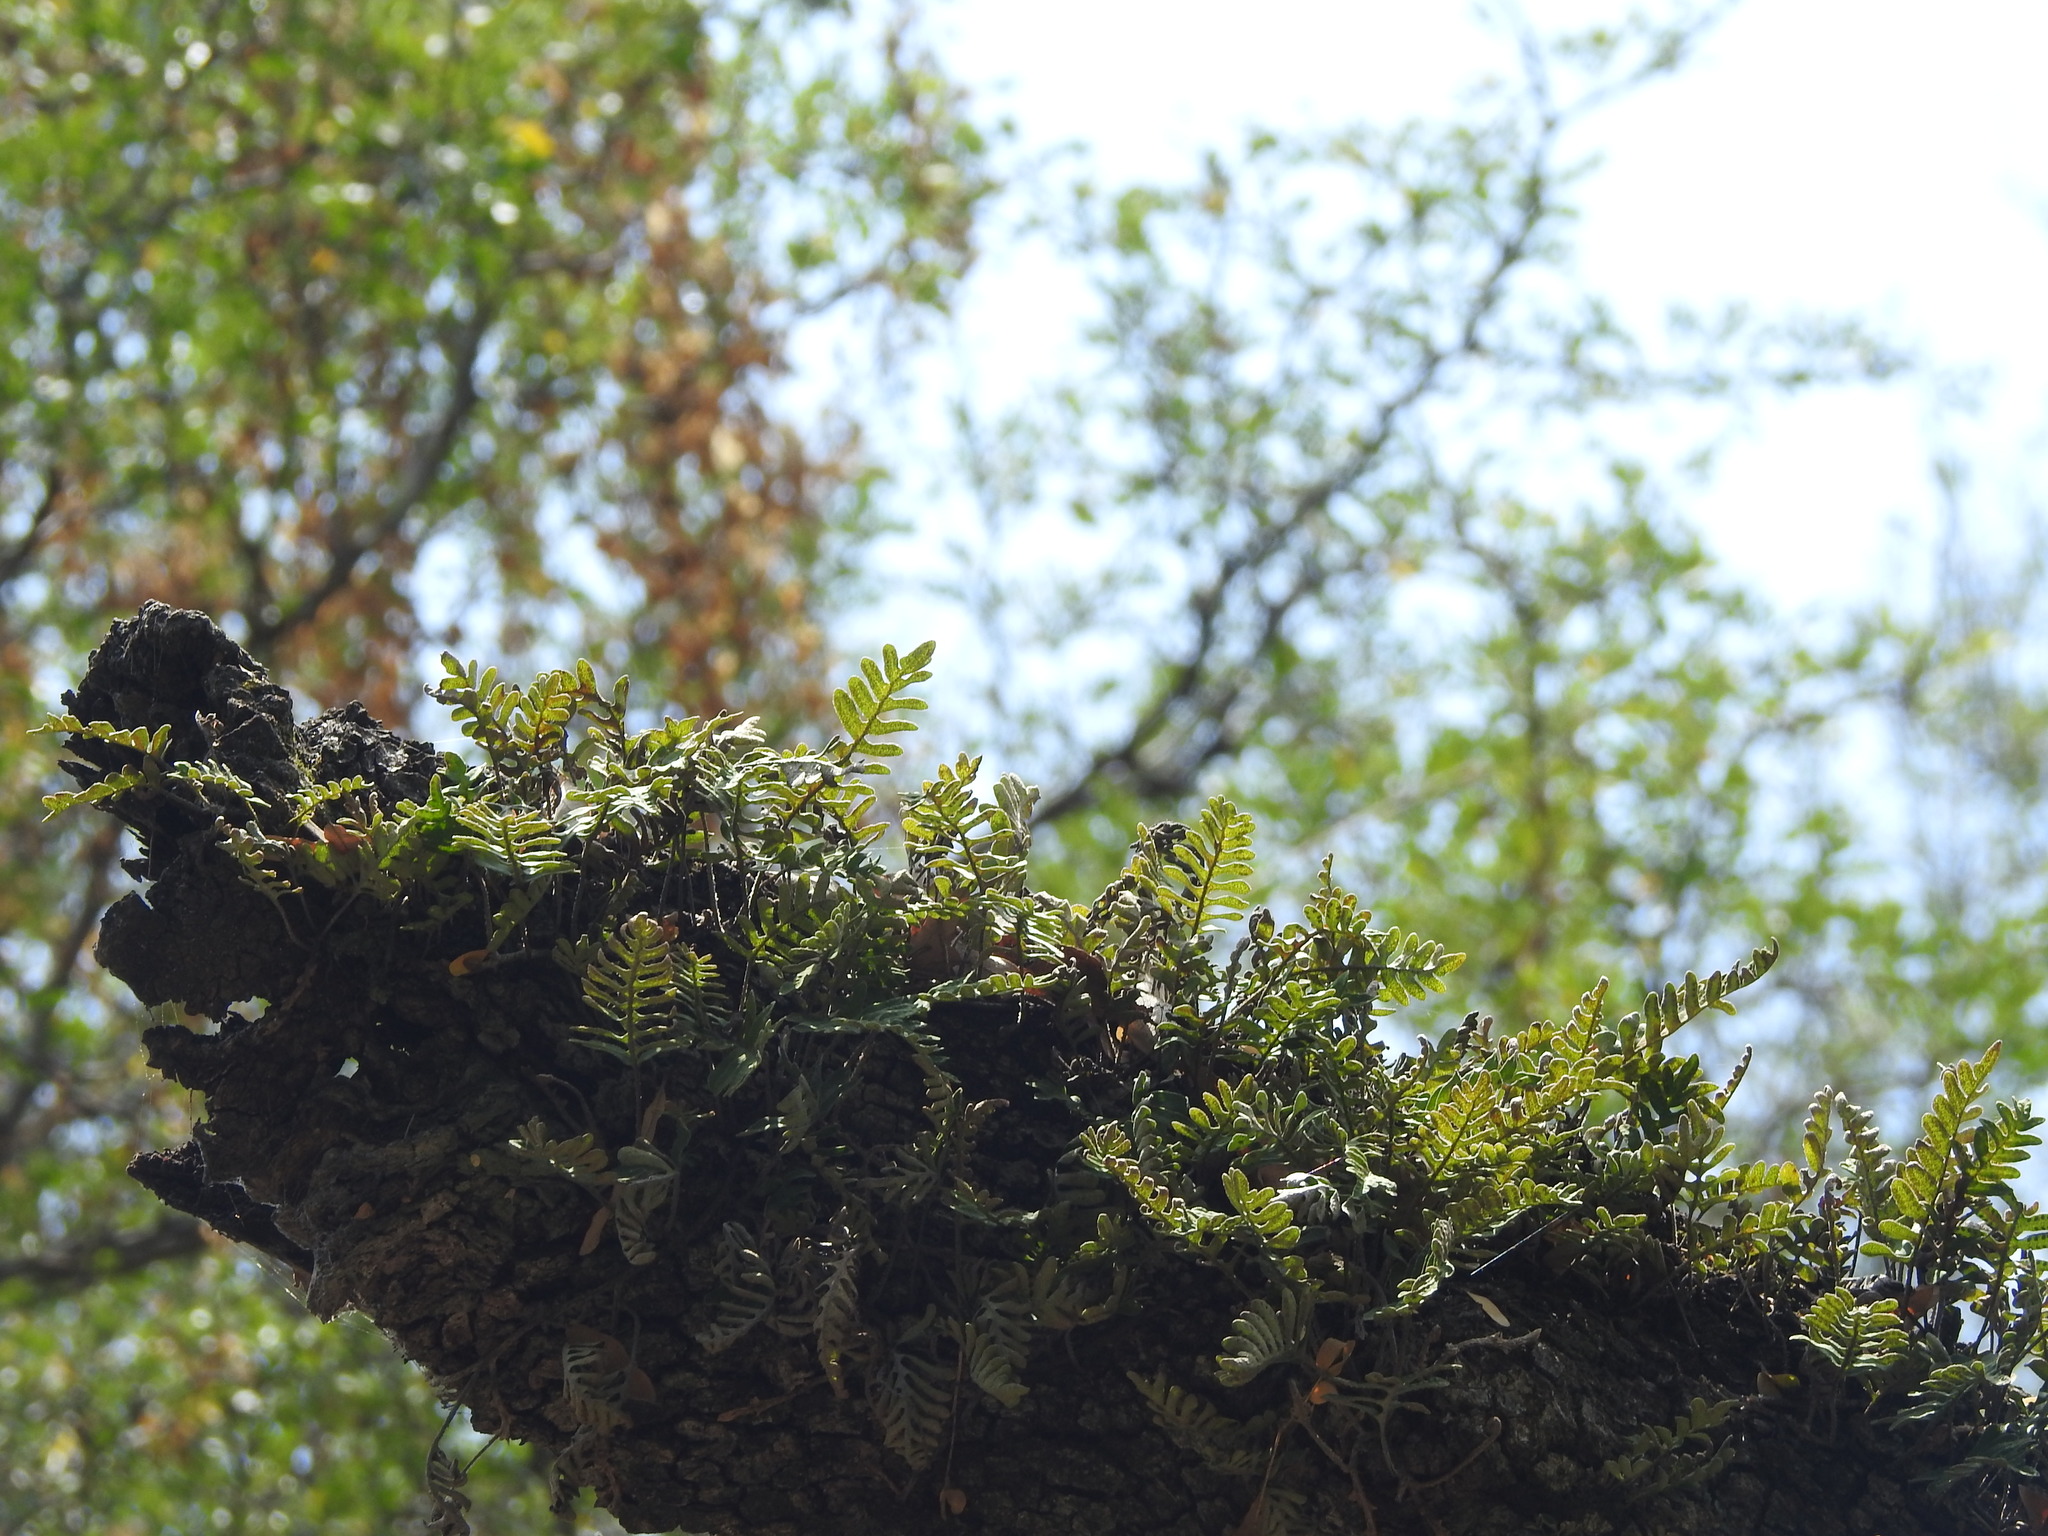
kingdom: Plantae
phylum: Tracheophyta
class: Polypodiopsida
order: Polypodiales
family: Polypodiaceae
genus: Pleopeltis
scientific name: Pleopeltis michauxiana
